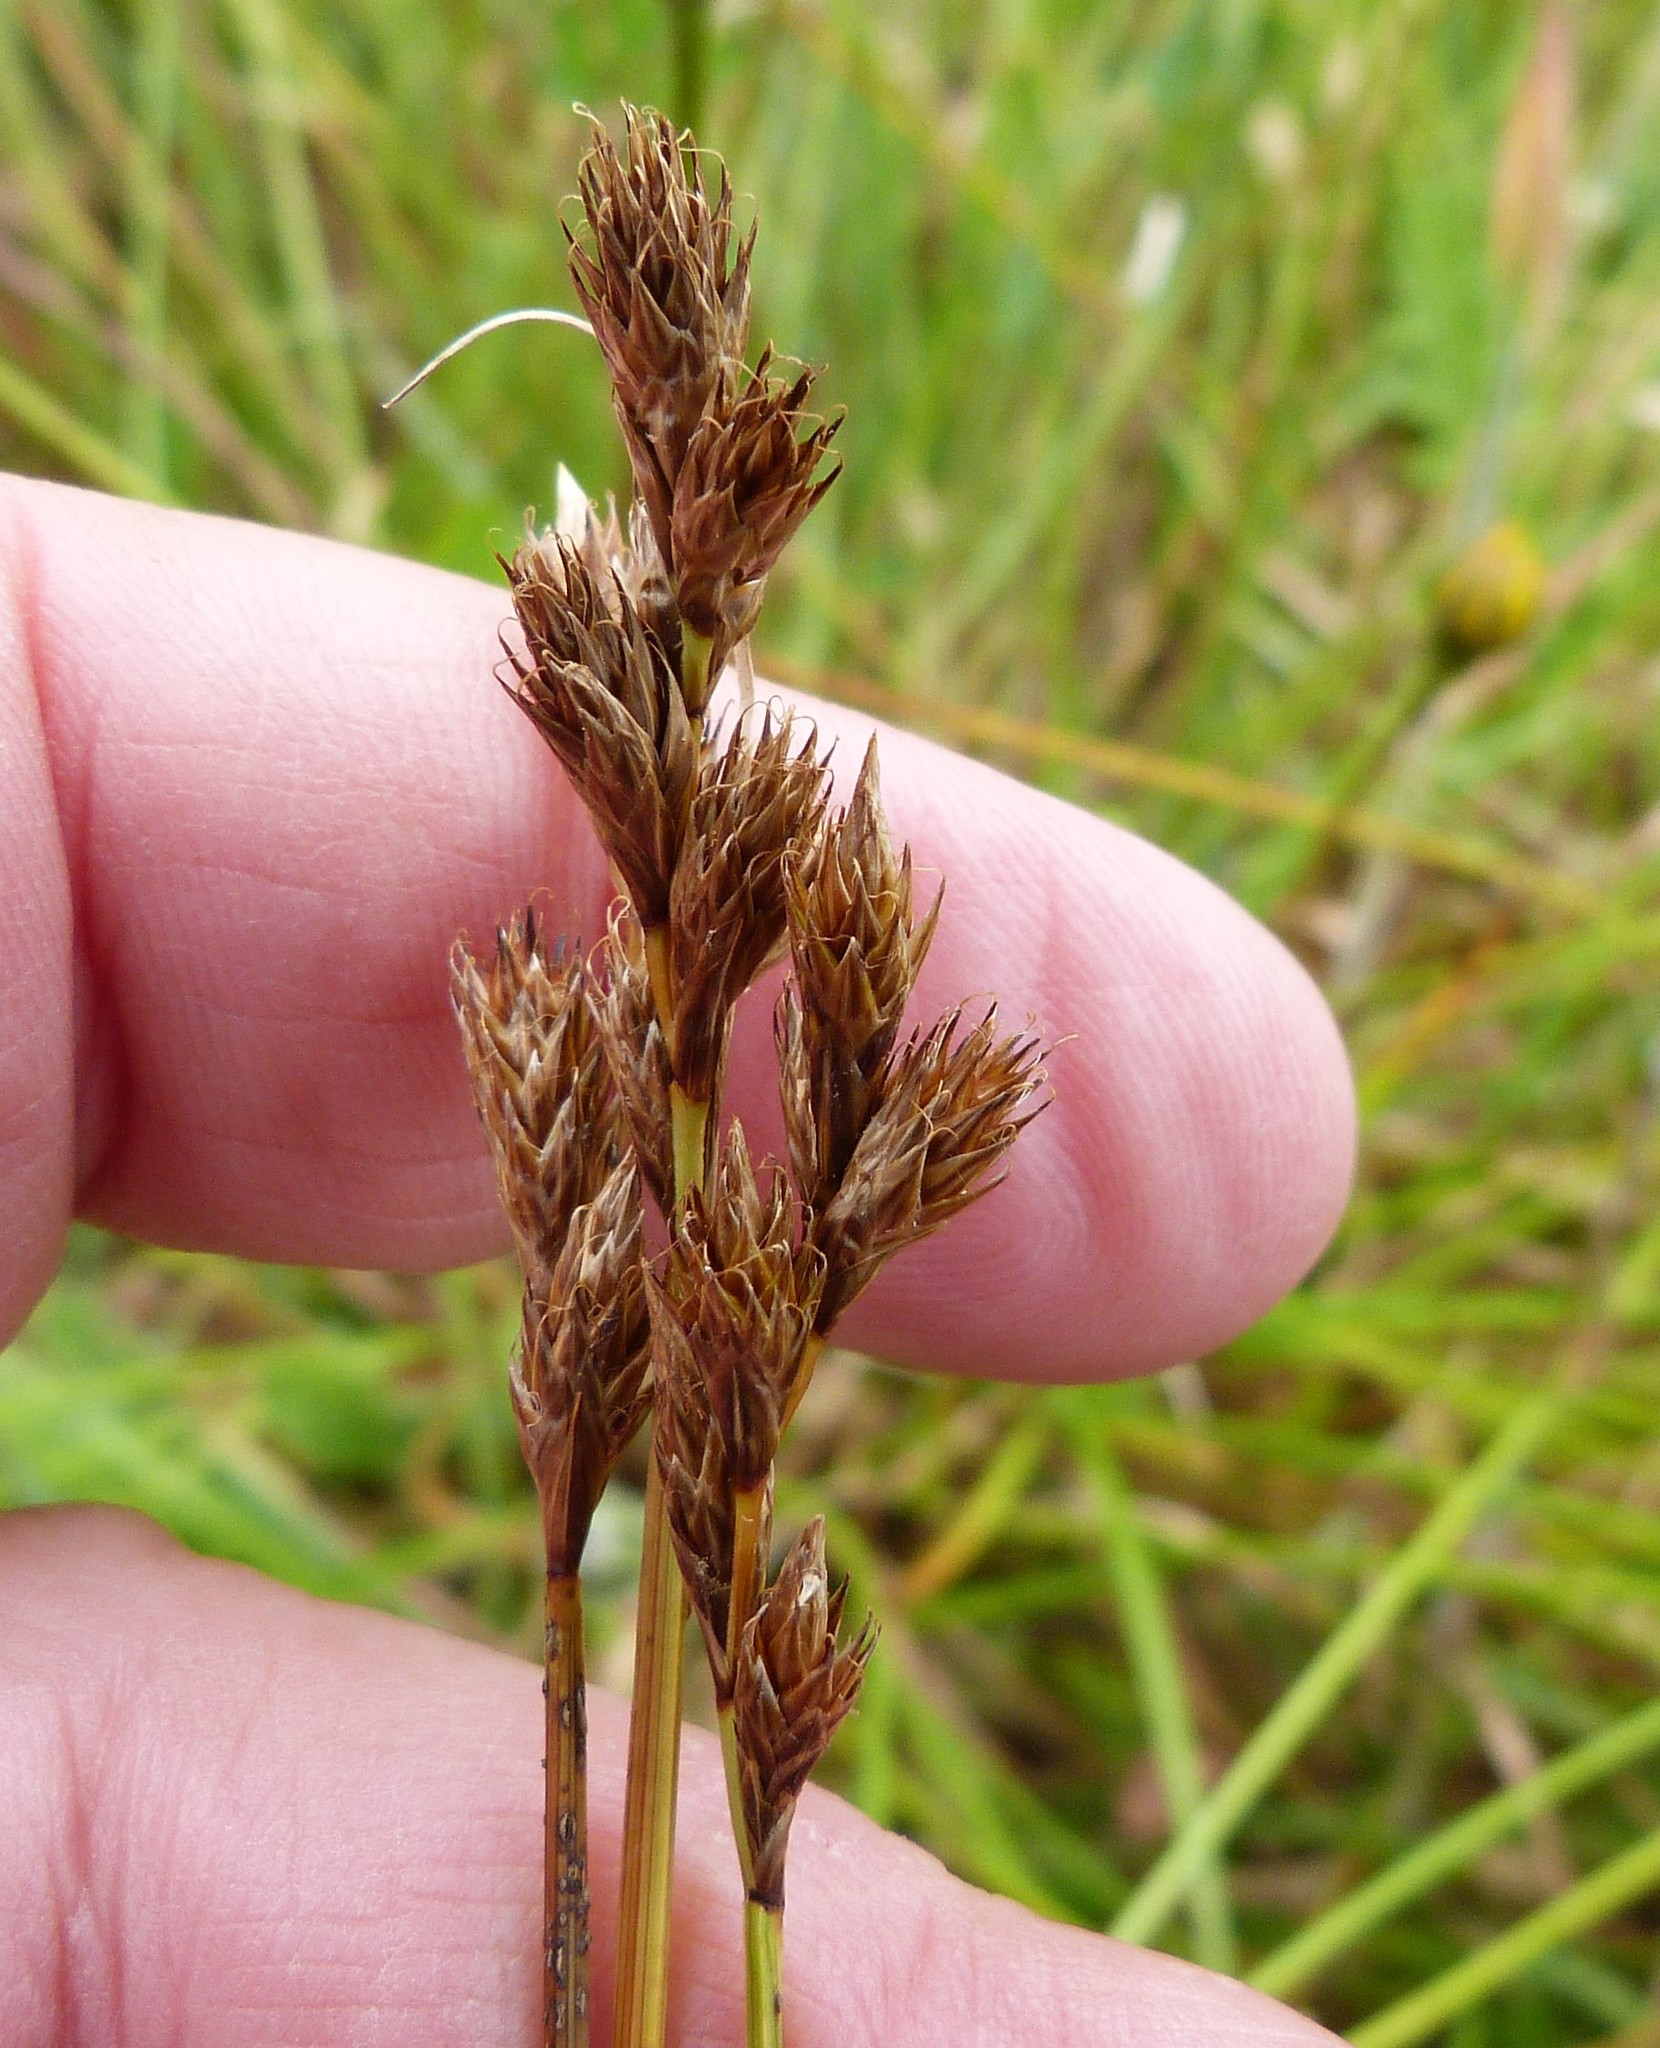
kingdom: Plantae
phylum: Tracheophyta
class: Liliopsida
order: Poales
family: Cyperaceae
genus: Carex
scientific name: Carex leporina
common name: Oval sedge
